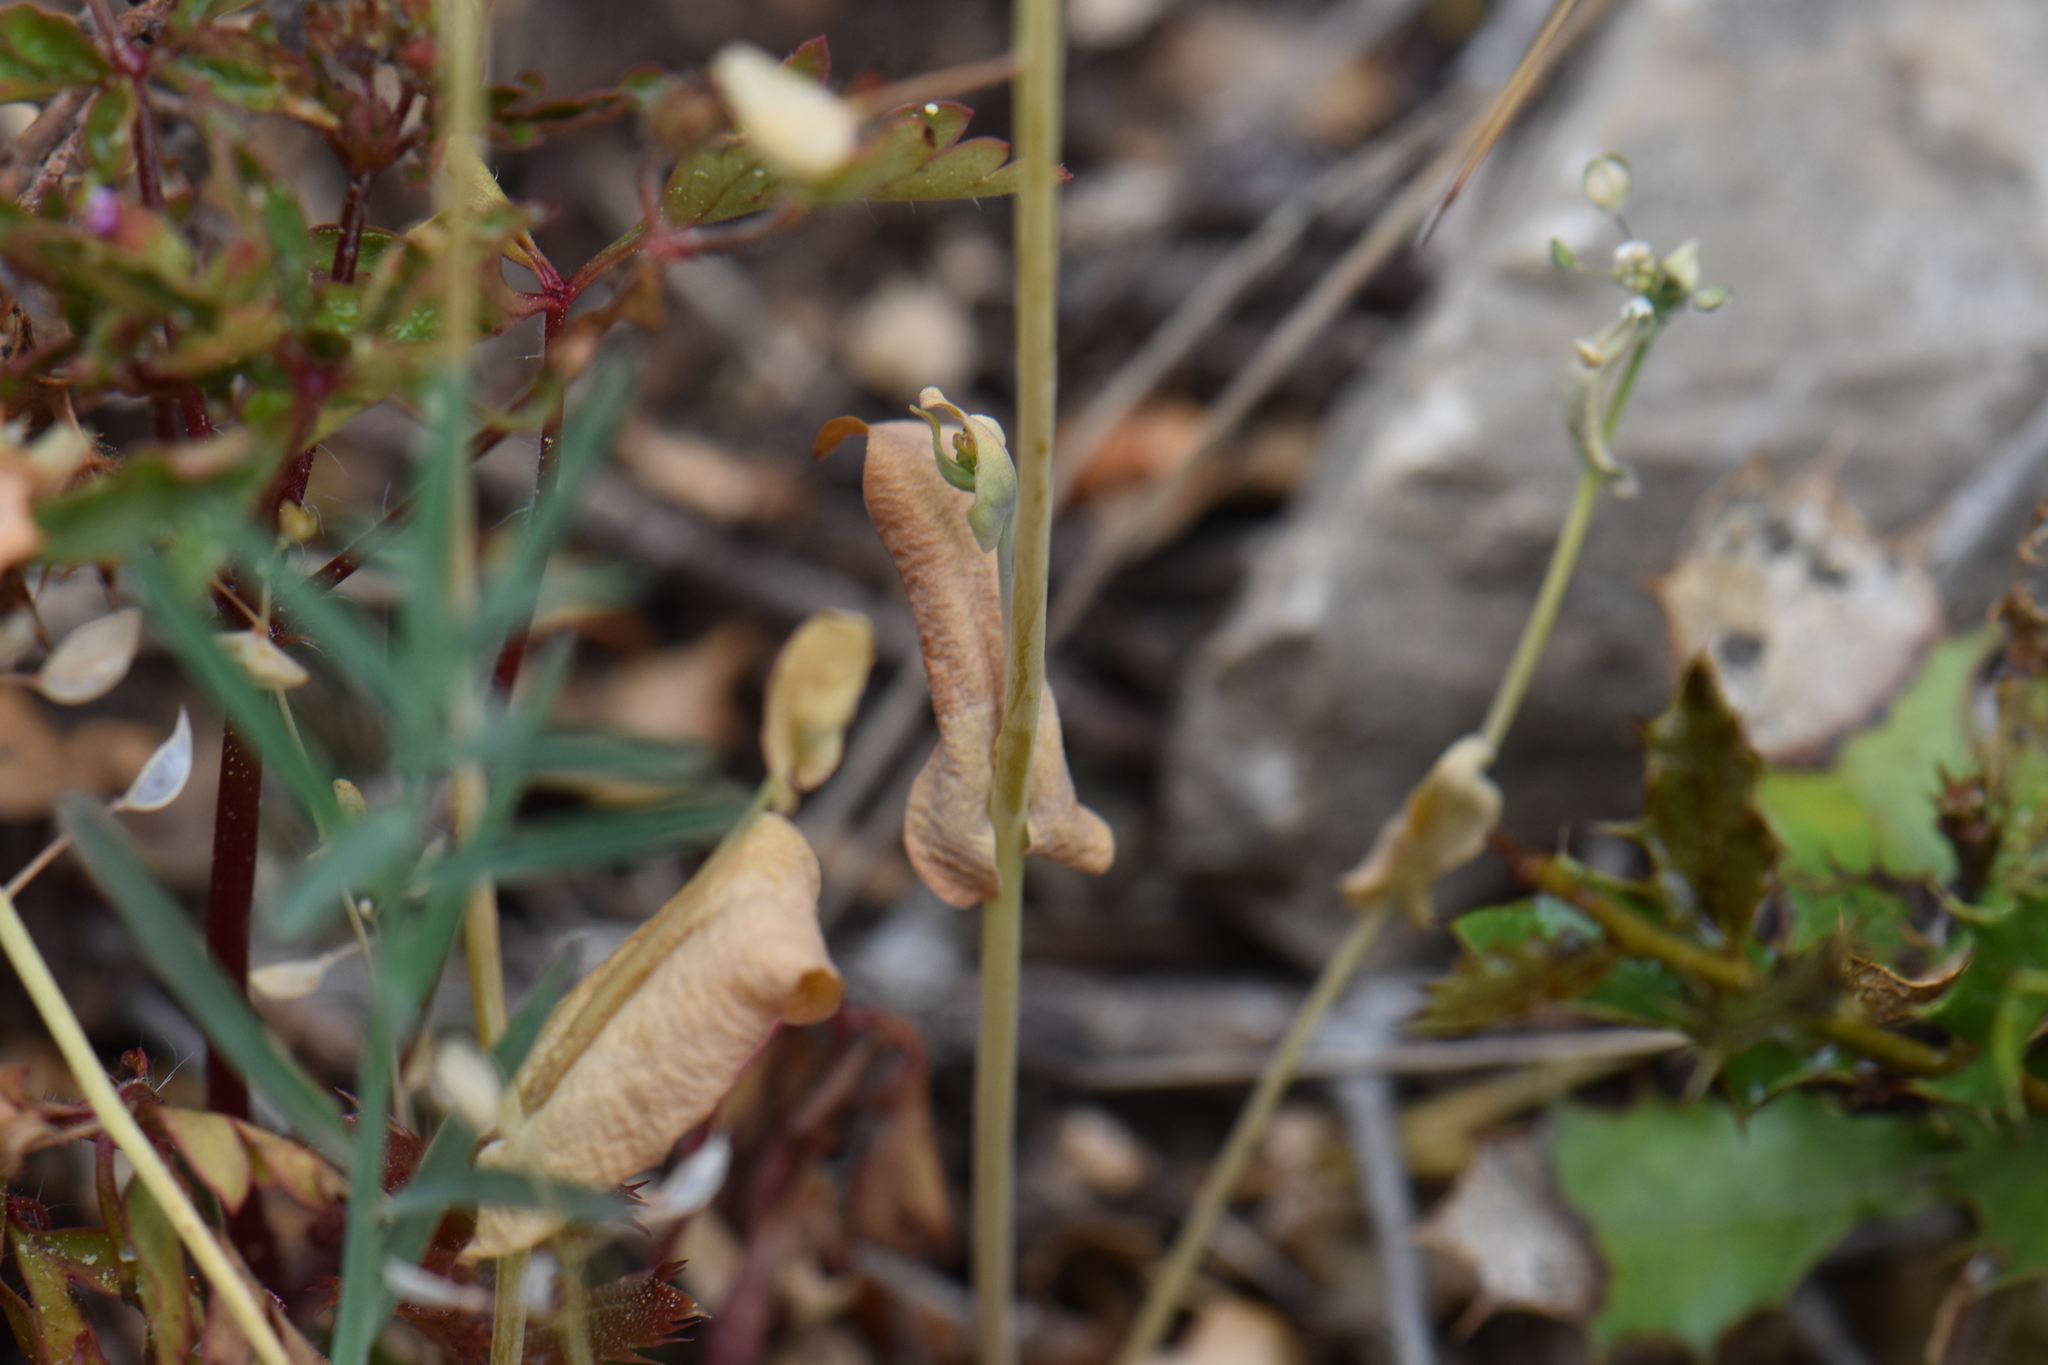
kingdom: Plantae
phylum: Tracheophyta
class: Magnoliopsida
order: Brassicales
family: Brassicaceae
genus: Noccaea
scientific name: Noccaea perfoliata
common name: Perfoliate pennycress
